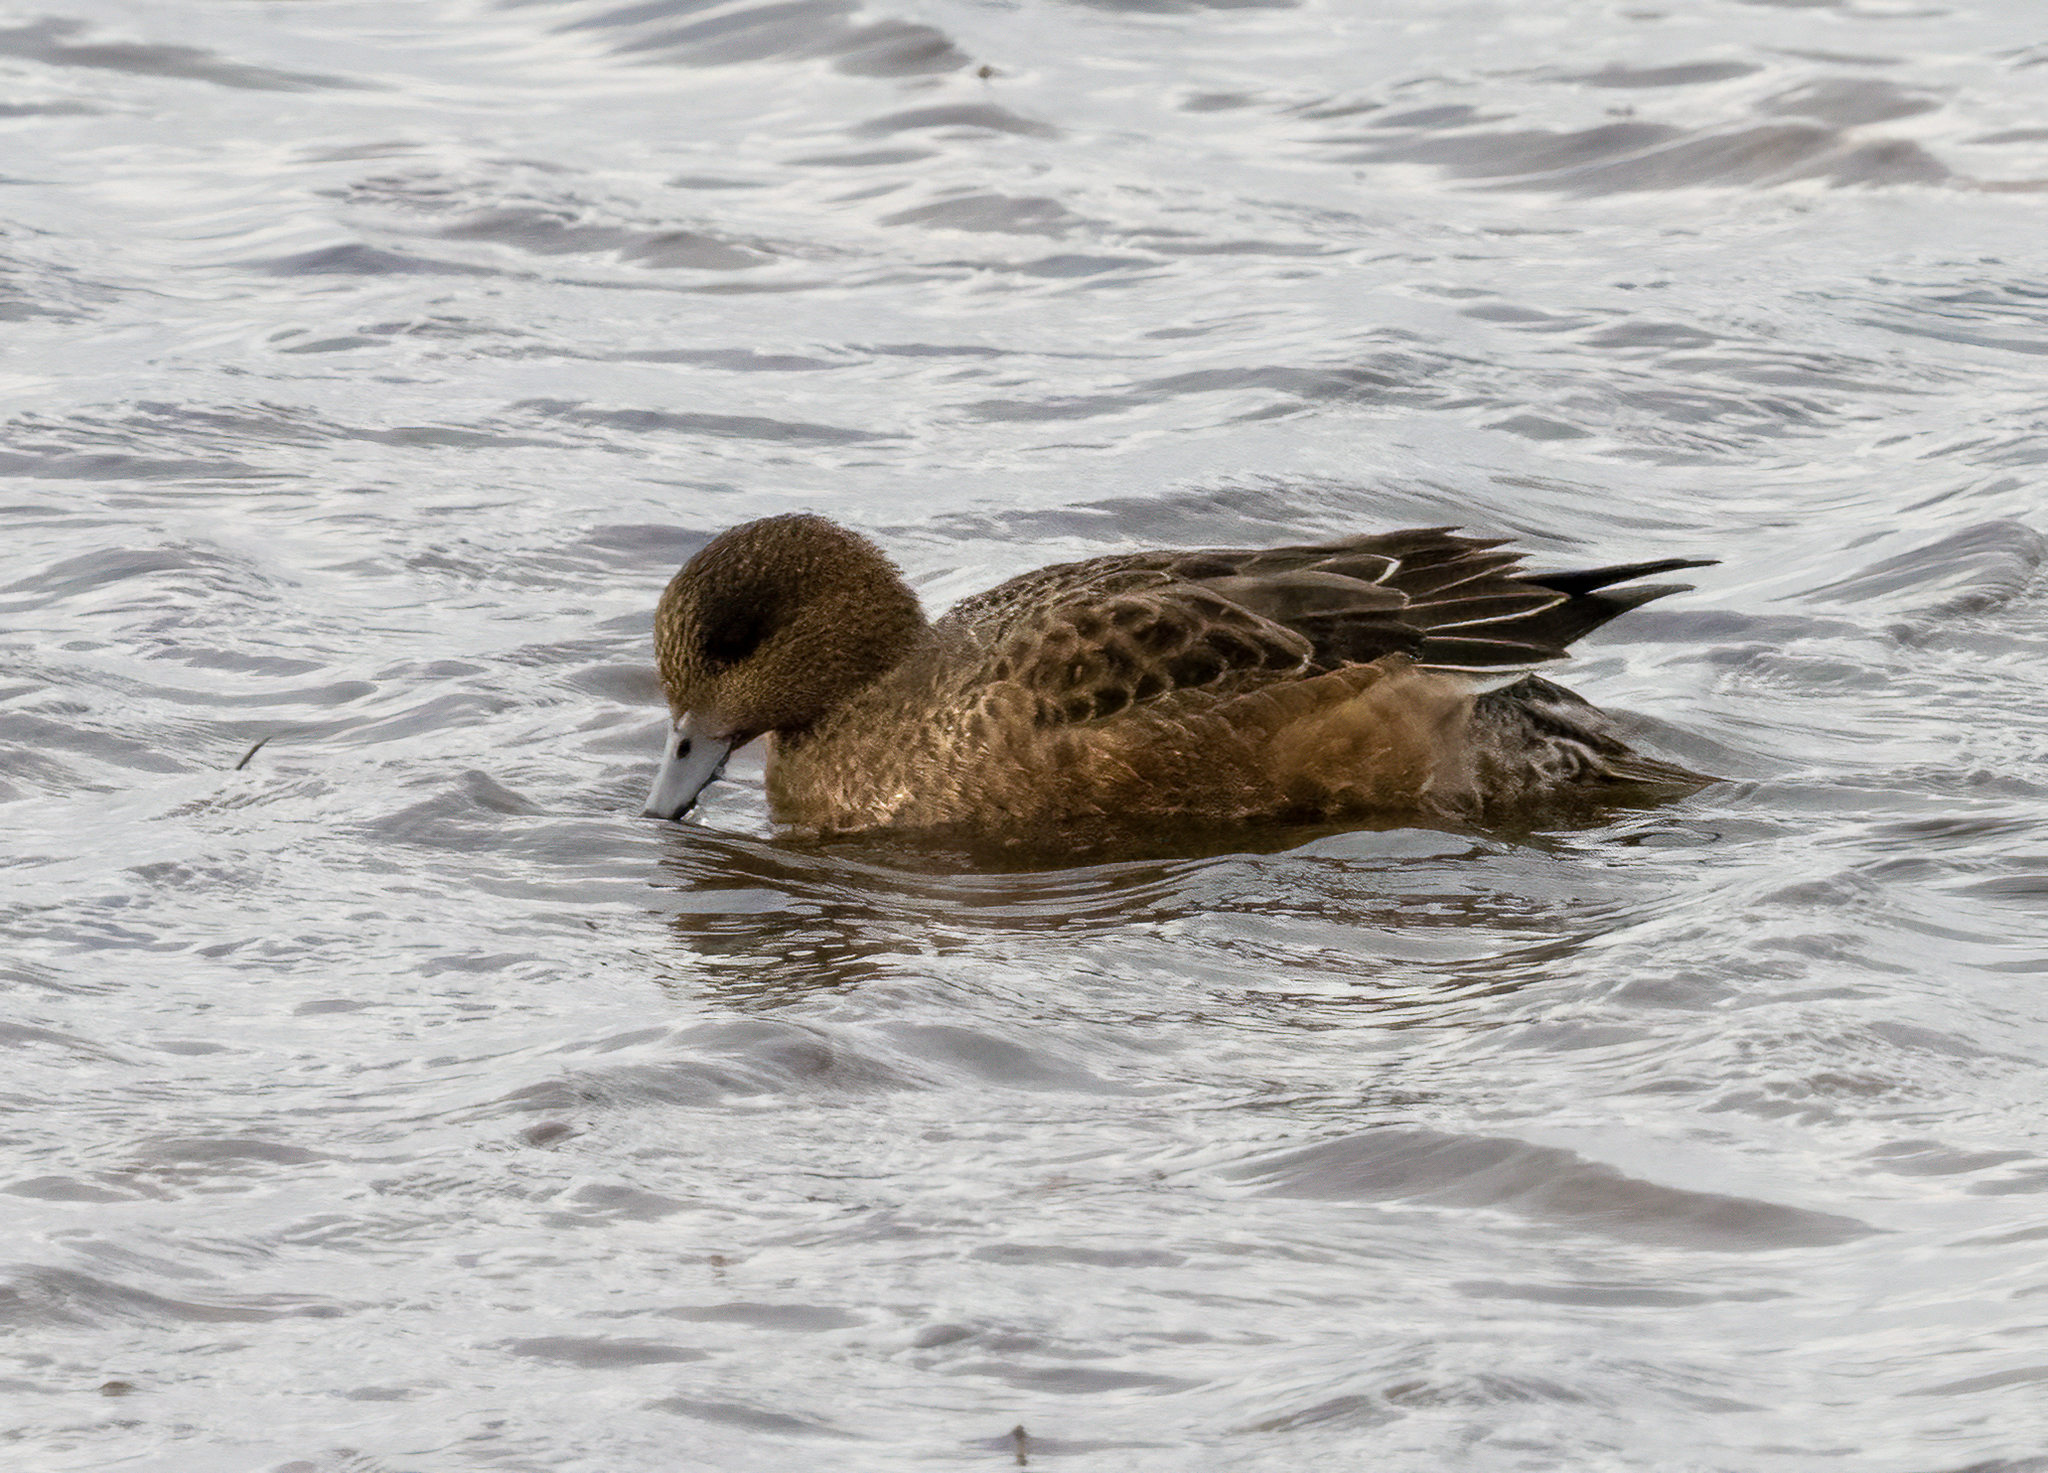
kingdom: Animalia
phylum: Chordata
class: Aves
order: Anseriformes
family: Anatidae
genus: Mareca
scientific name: Mareca penelope
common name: Eurasian wigeon
